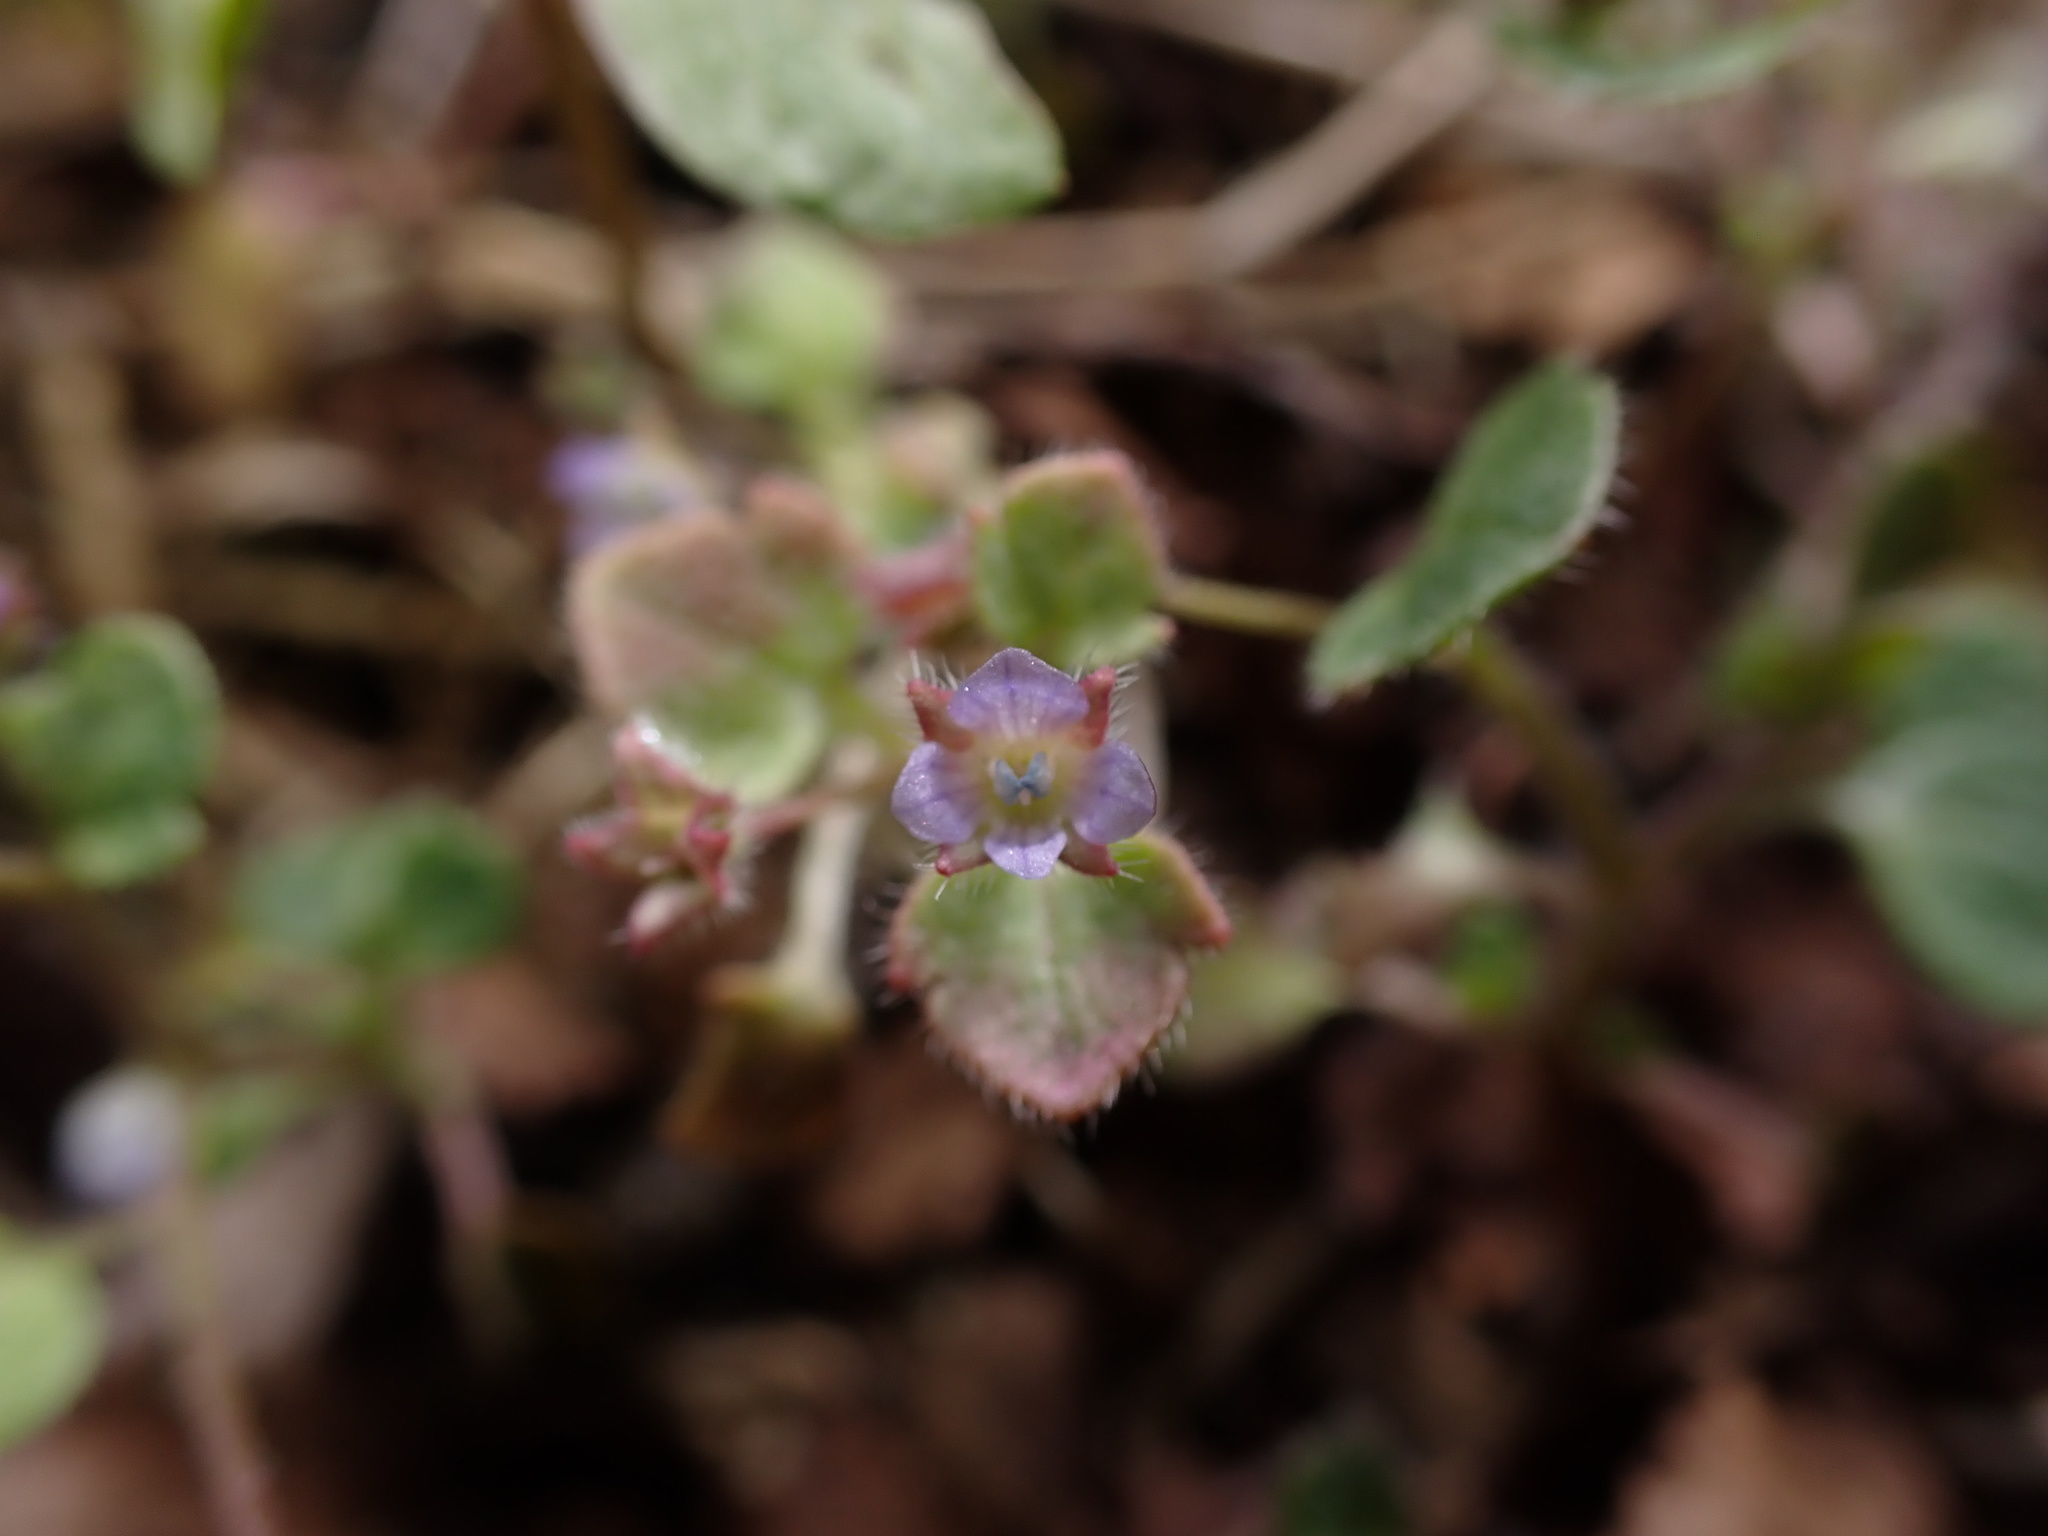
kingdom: Plantae
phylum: Tracheophyta
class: Magnoliopsida
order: Lamiales
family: Plantaginaceae
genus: Veronica
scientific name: Veronica sublobata
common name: False ivy-leaved speedwell
